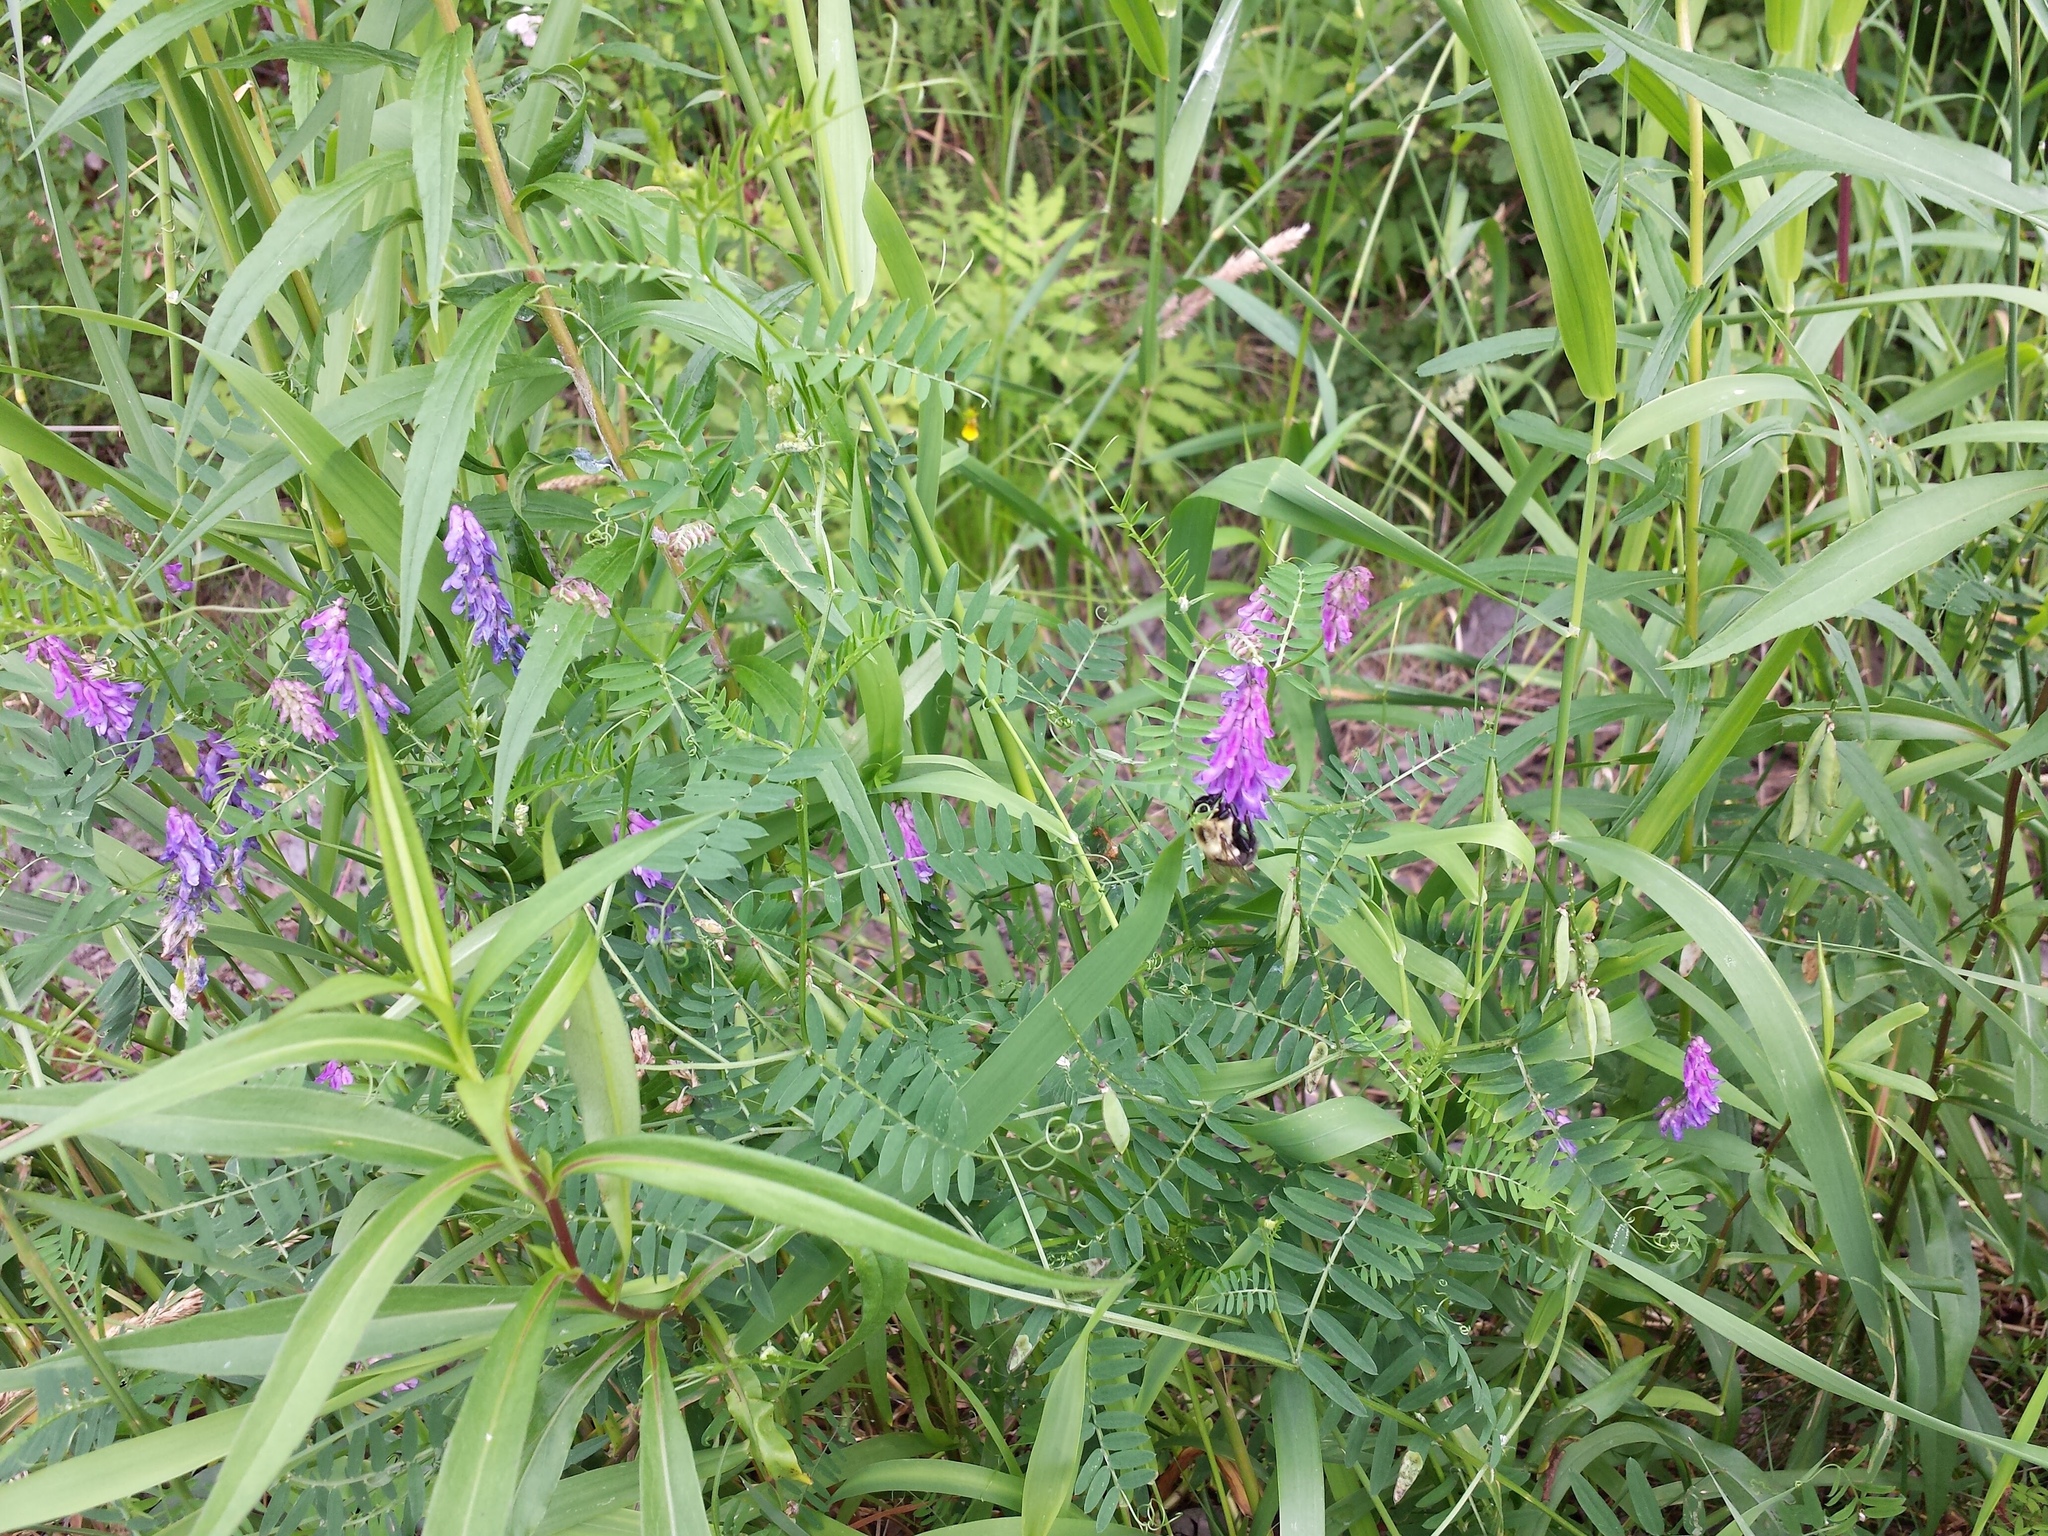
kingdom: Plantae
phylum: Tracheophyta
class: Magnoliopsida
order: Fabales
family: Fabaceae
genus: Vicia
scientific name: Vicia cracca
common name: Bird vetch
